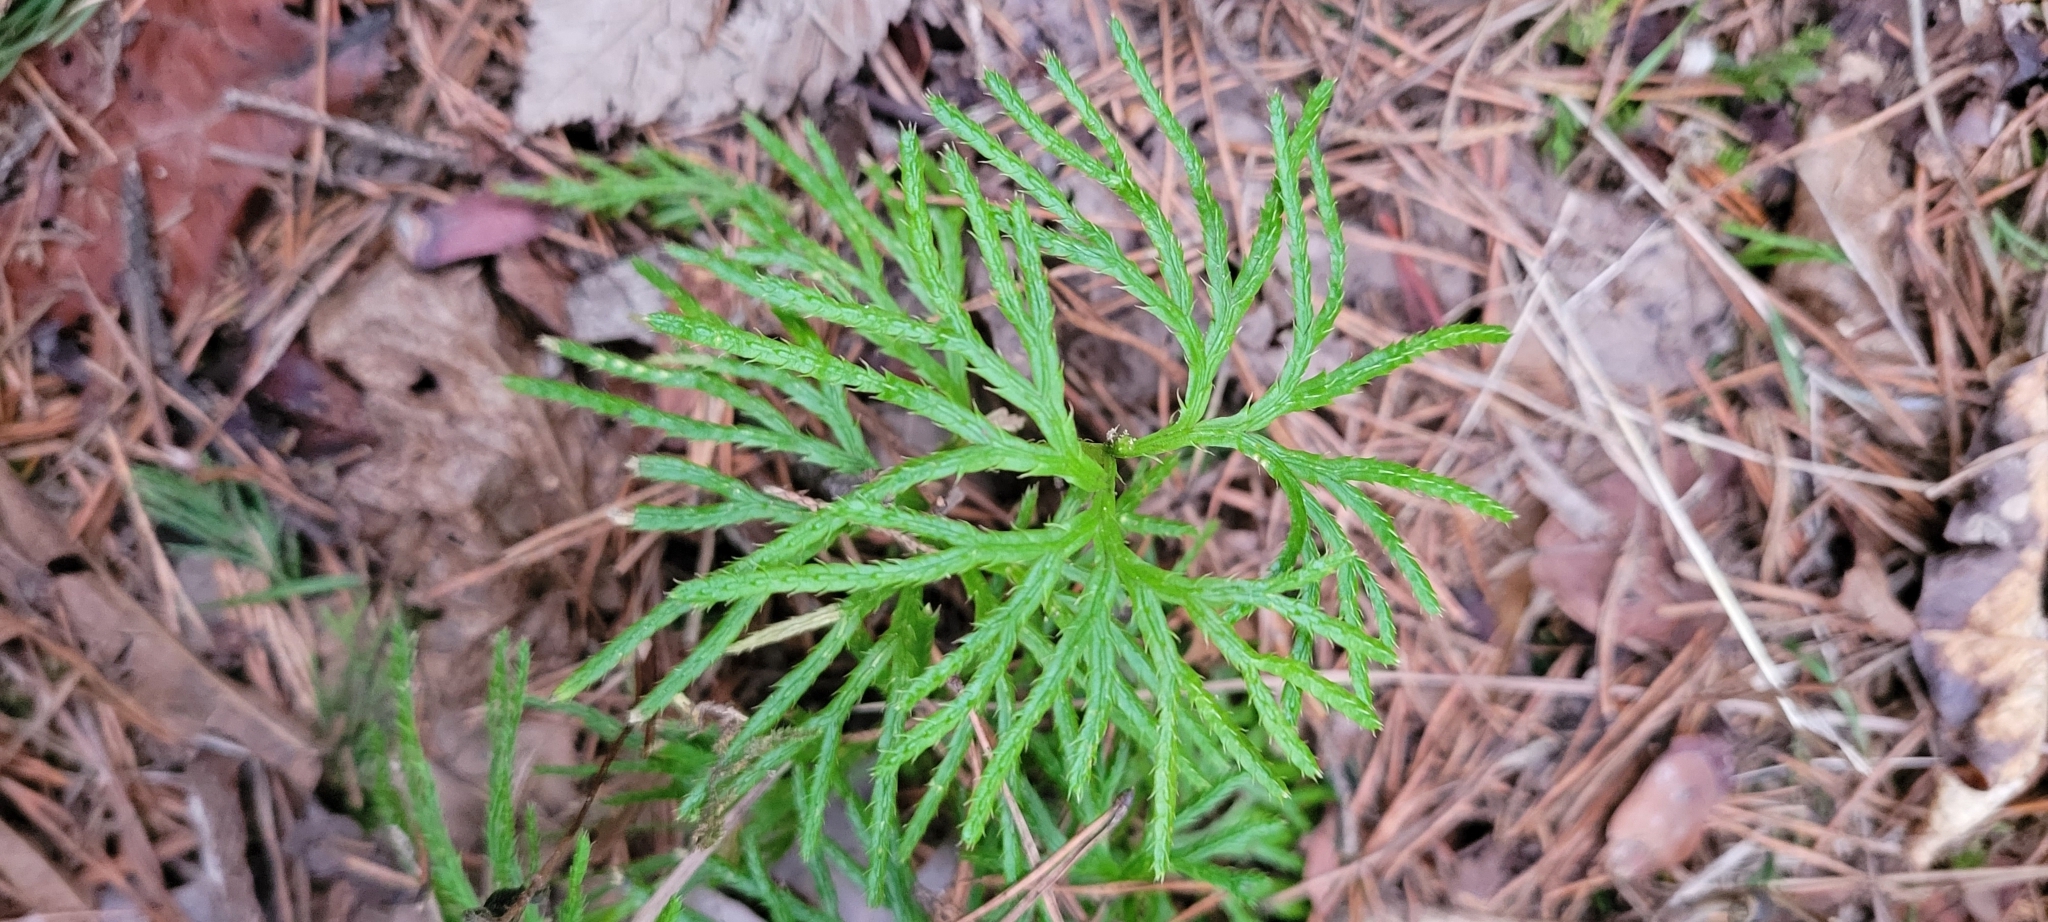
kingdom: Plantae
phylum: Tracheophyta
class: Lycopodiopsida
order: Lycopodiales
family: Lycopodiaceae
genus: Diphasiastrum
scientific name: Diphasiastrum digitatum
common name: Southern running-pine
